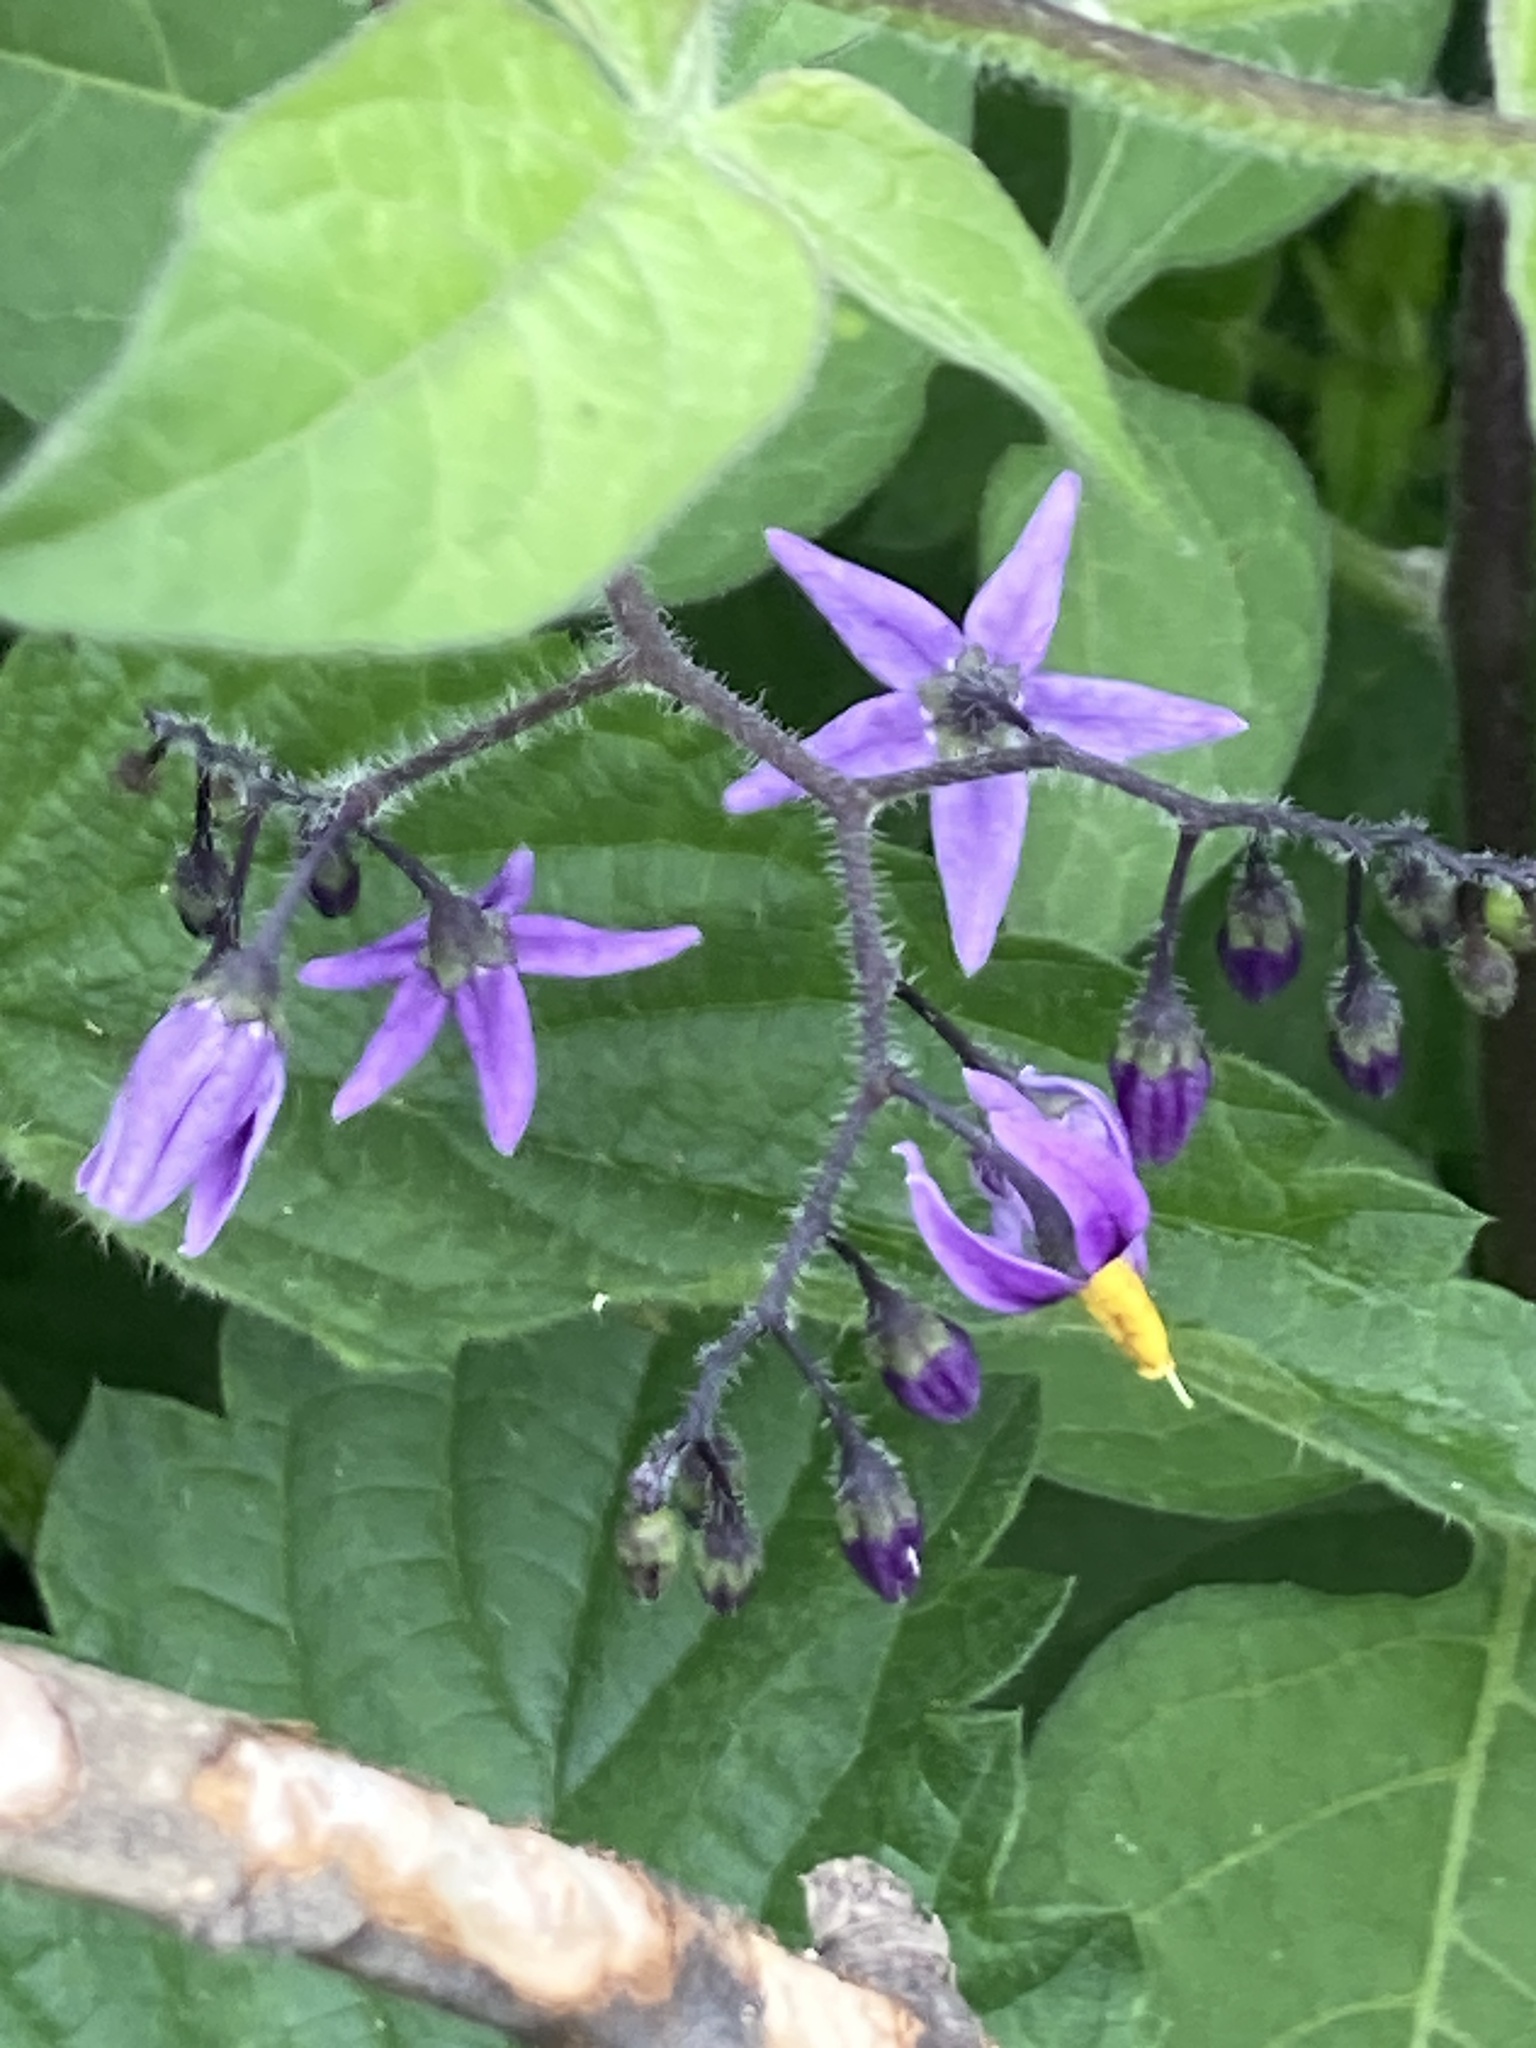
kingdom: Plantae
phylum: Tracheophyta
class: Magnoliopsida
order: Solanales
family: Solanaceae
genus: Solanum
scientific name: Solanum dulcamara
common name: Climbing nightshade
